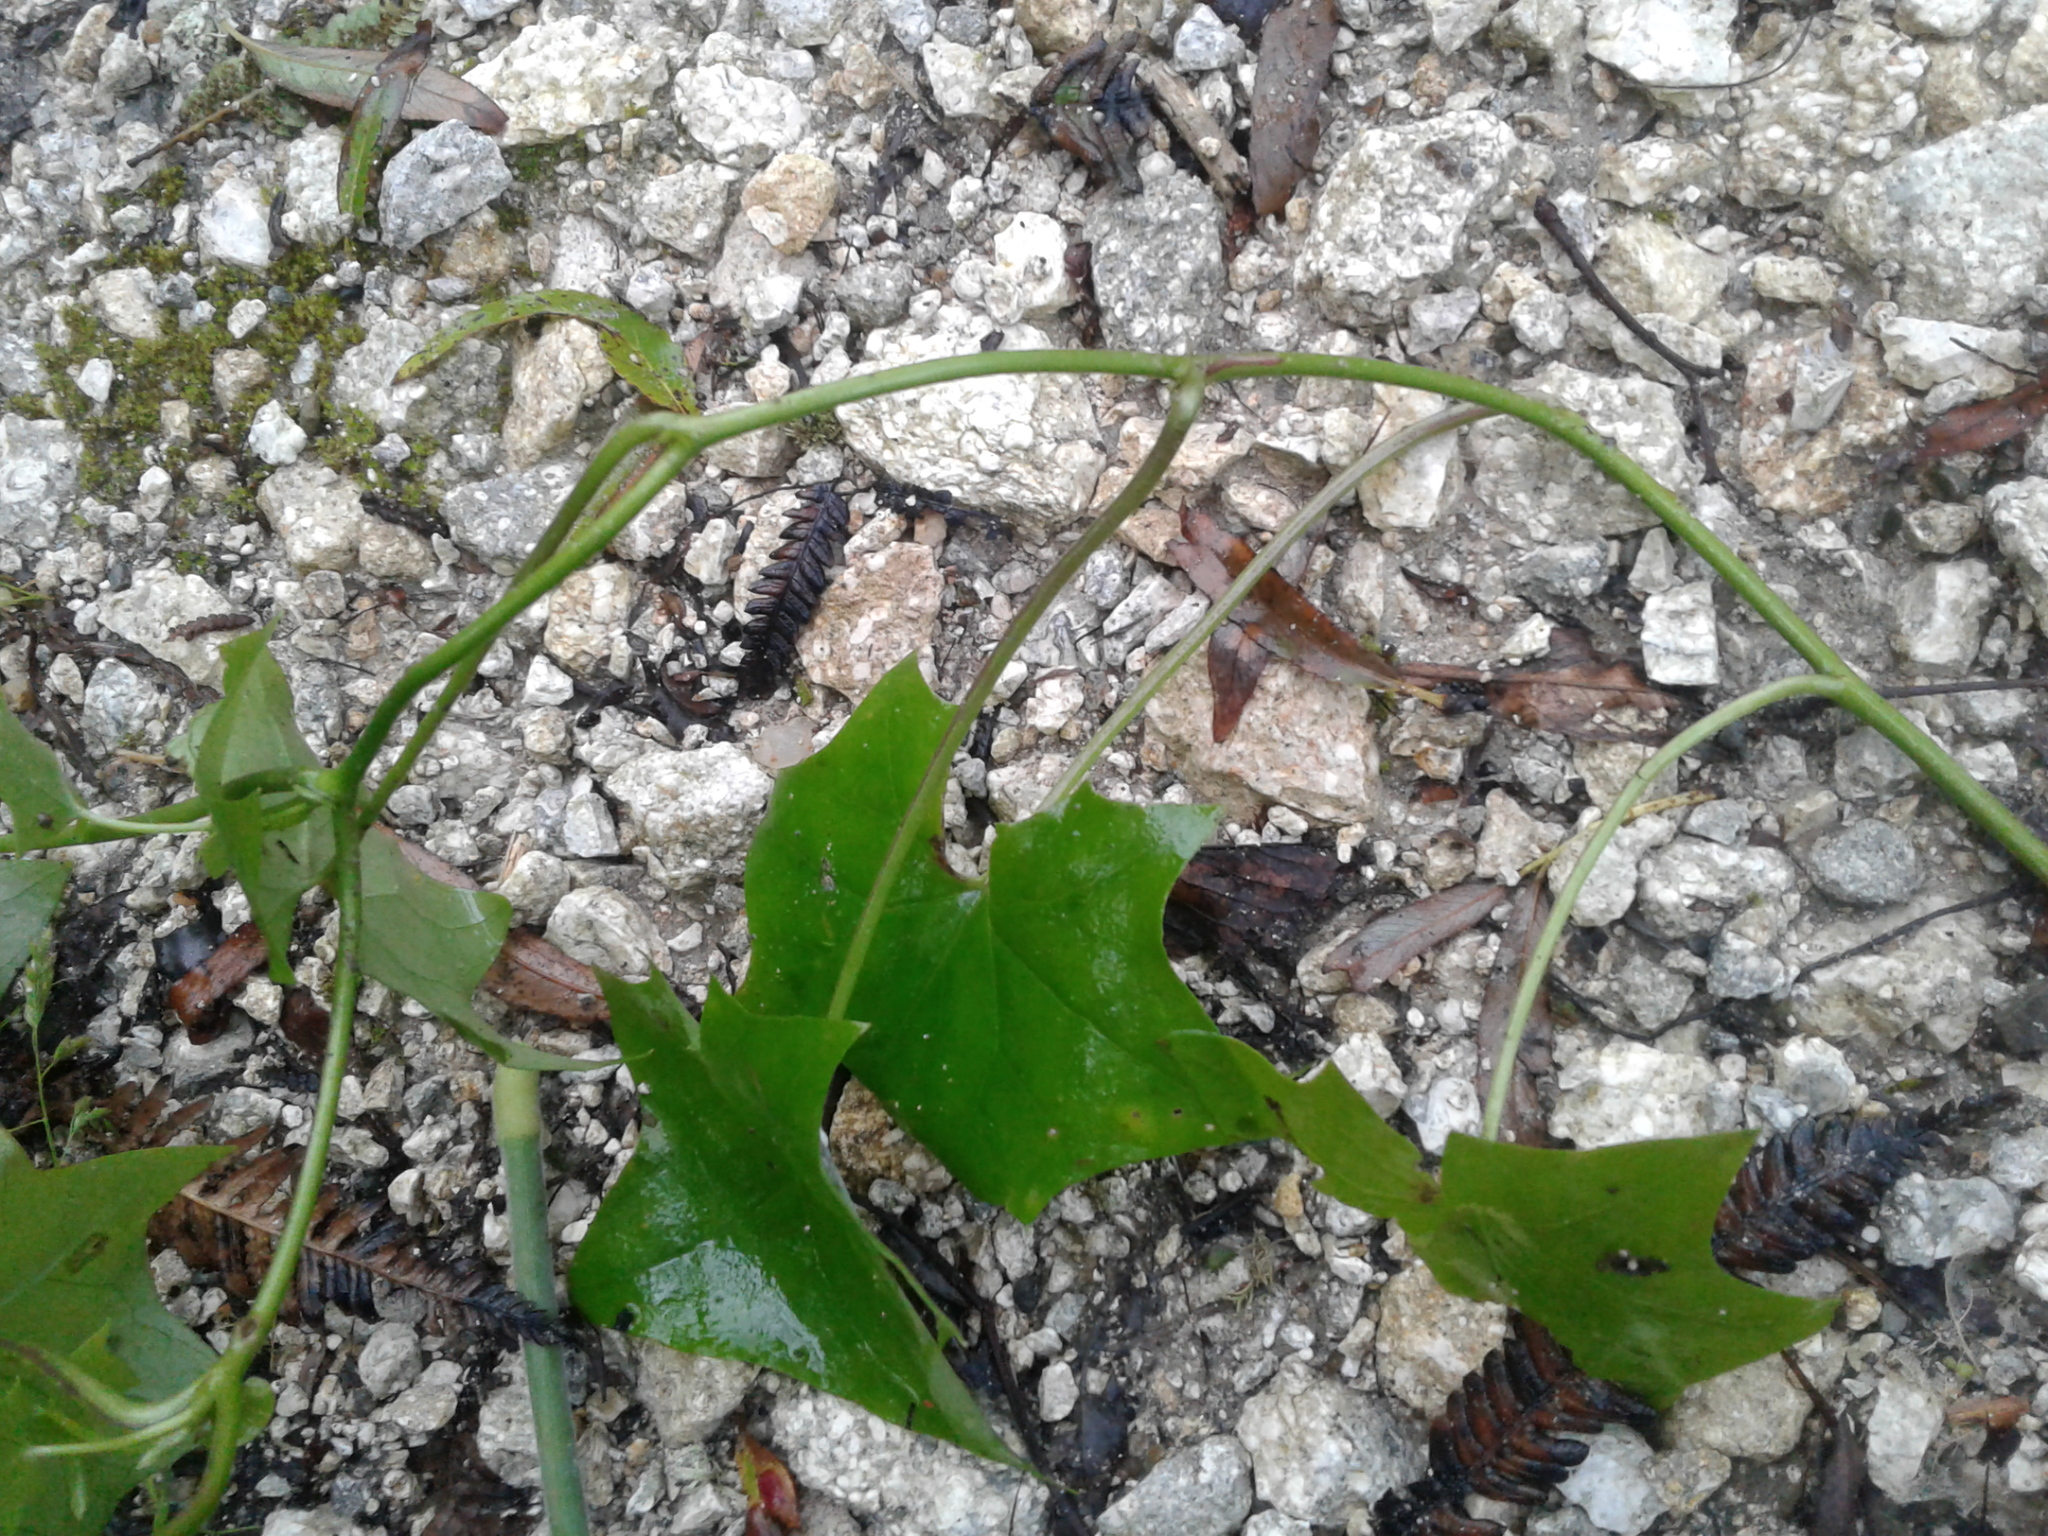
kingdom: Plantae
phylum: Tracheophyta
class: Magnoliopsida
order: Asterales
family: Asteraceae
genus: Delairea
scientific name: Delairea odorata
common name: Cape-ivy
